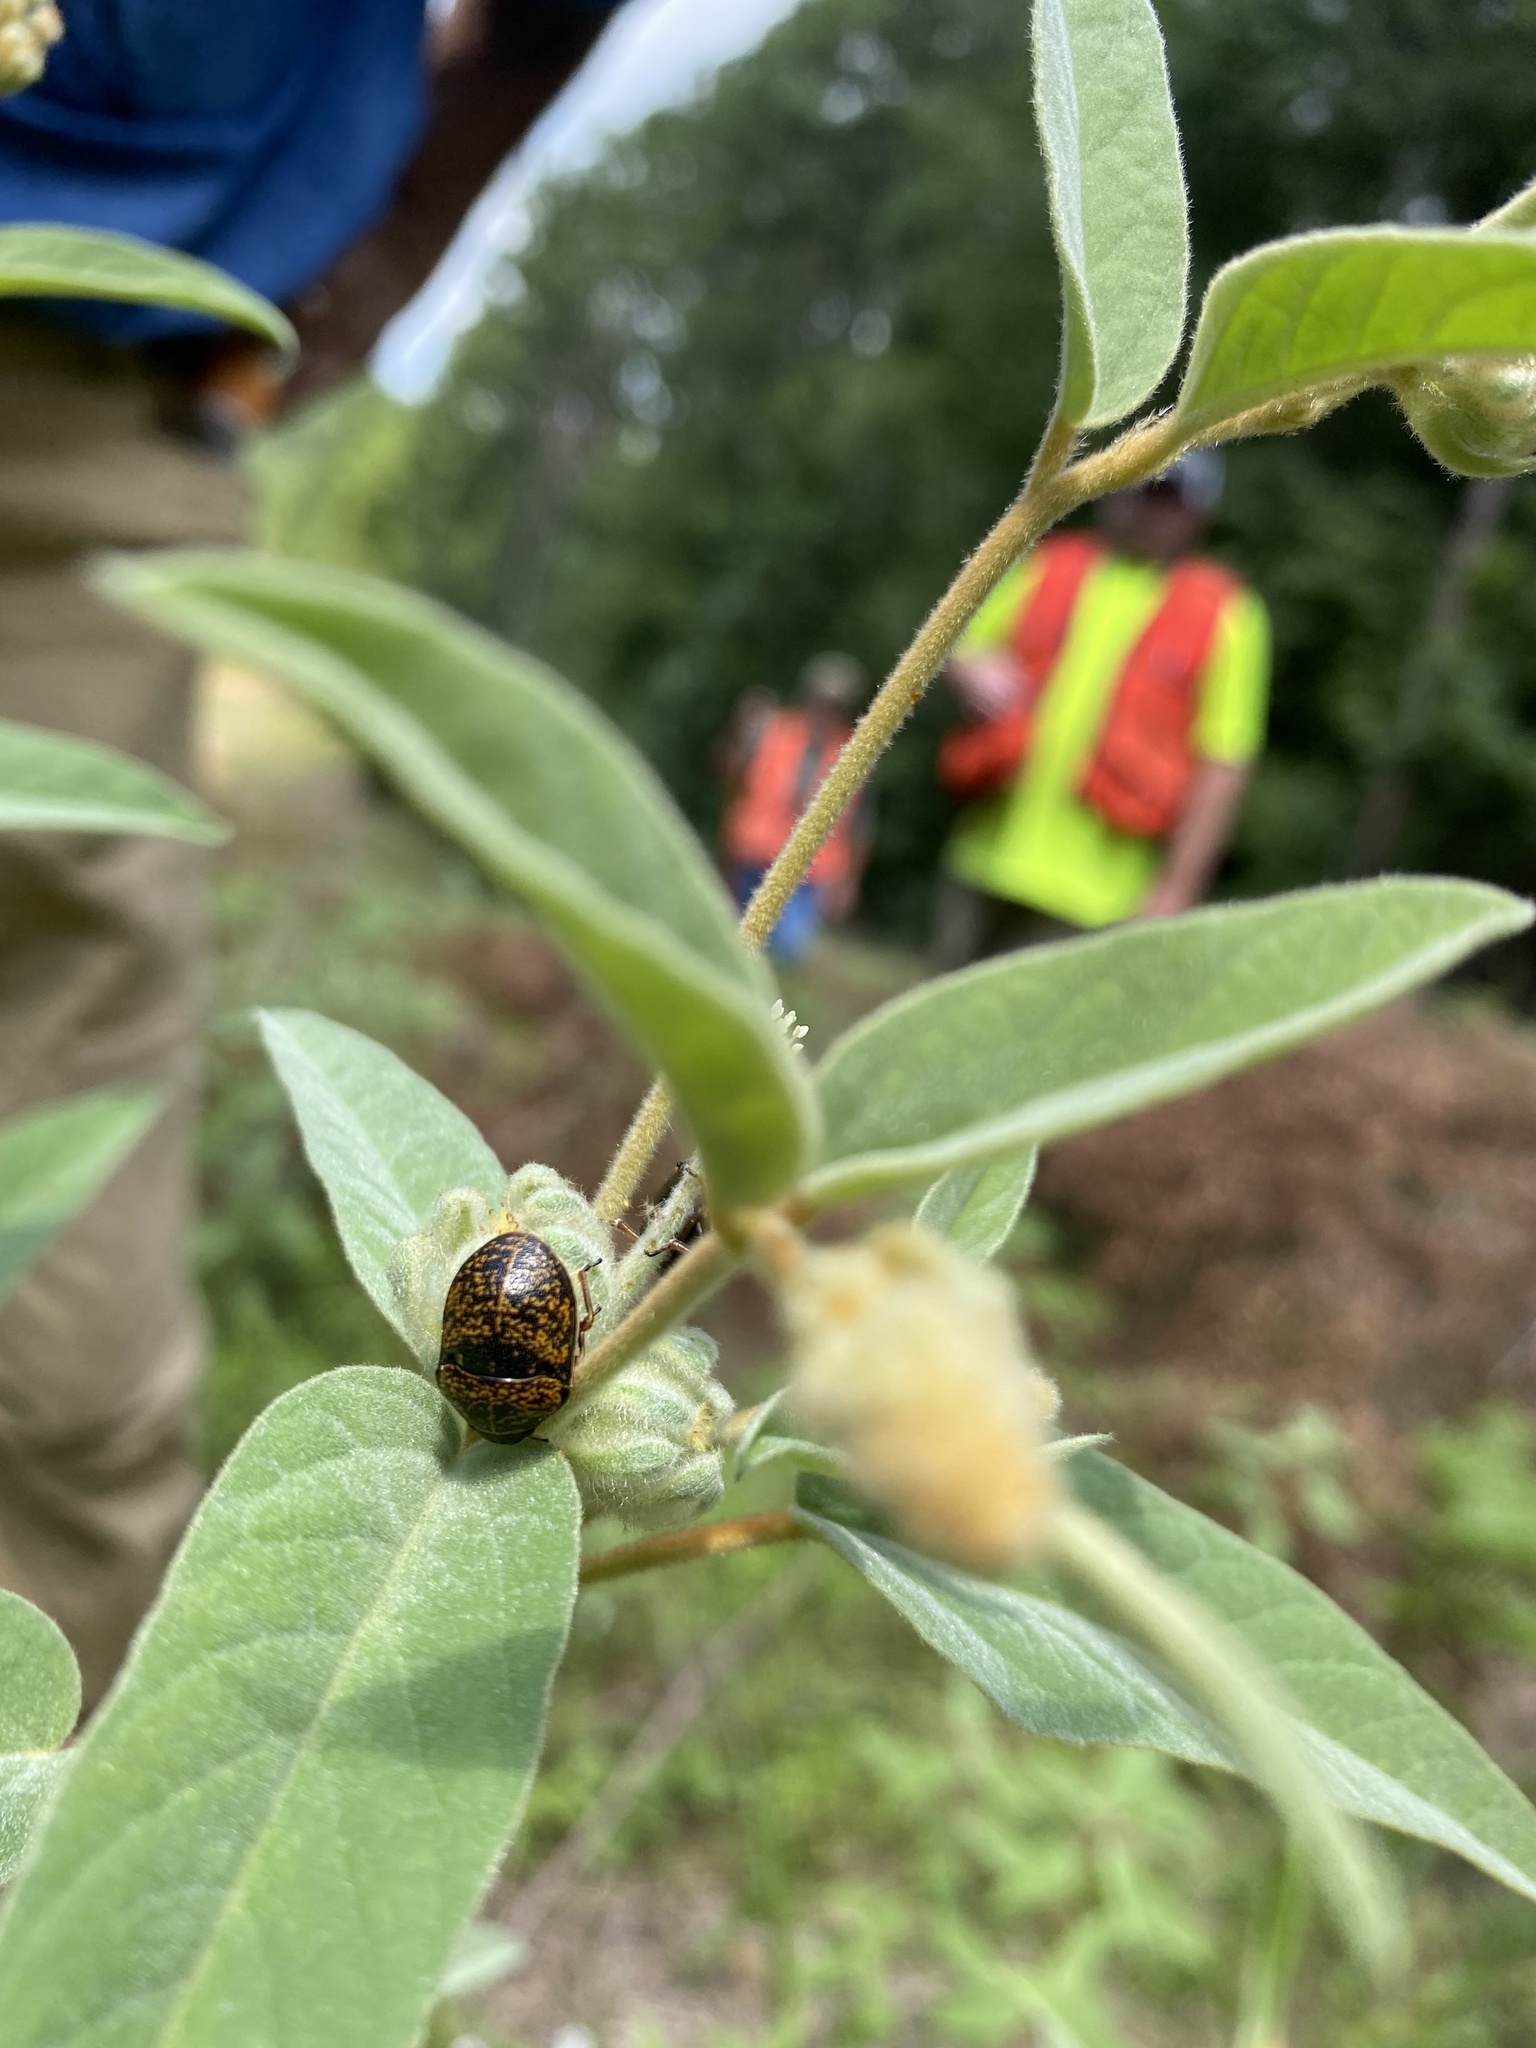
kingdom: Animalia
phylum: Arthropoda
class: Insecta
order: Hemiptera
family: Scutelleridae
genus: Orsilochides
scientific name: Orsilochides guttata
